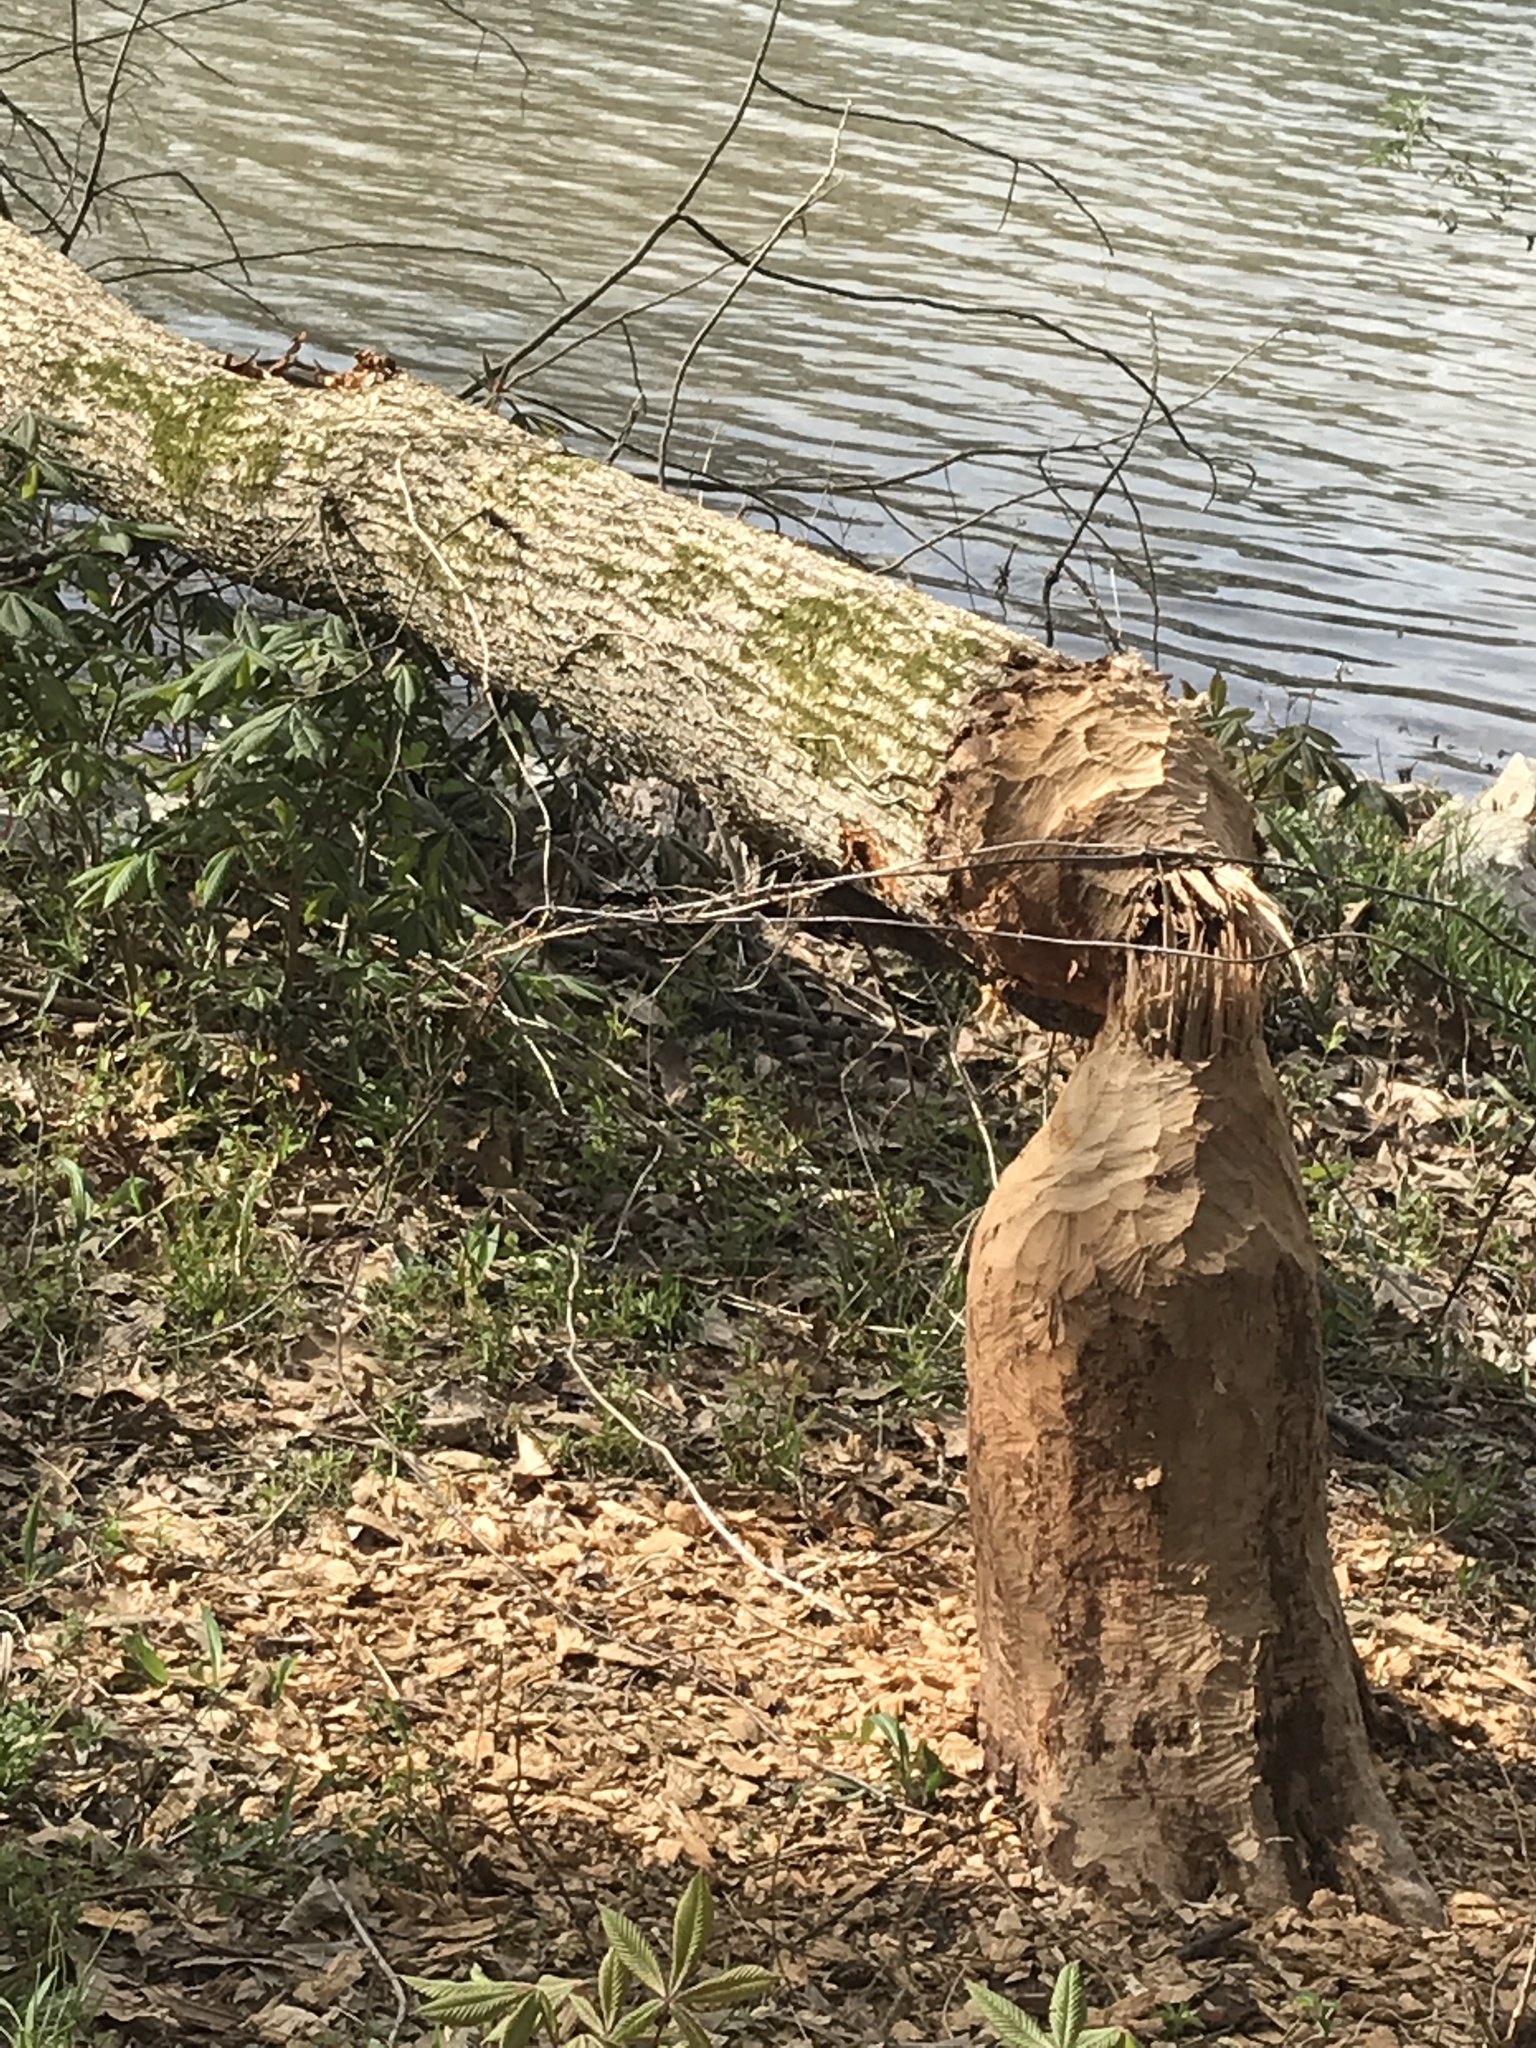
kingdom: Animalia
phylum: Chordata
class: Mammalia
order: Rodentia
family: Castoridae
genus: Castor
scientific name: Castor canadensis
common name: American beaver
